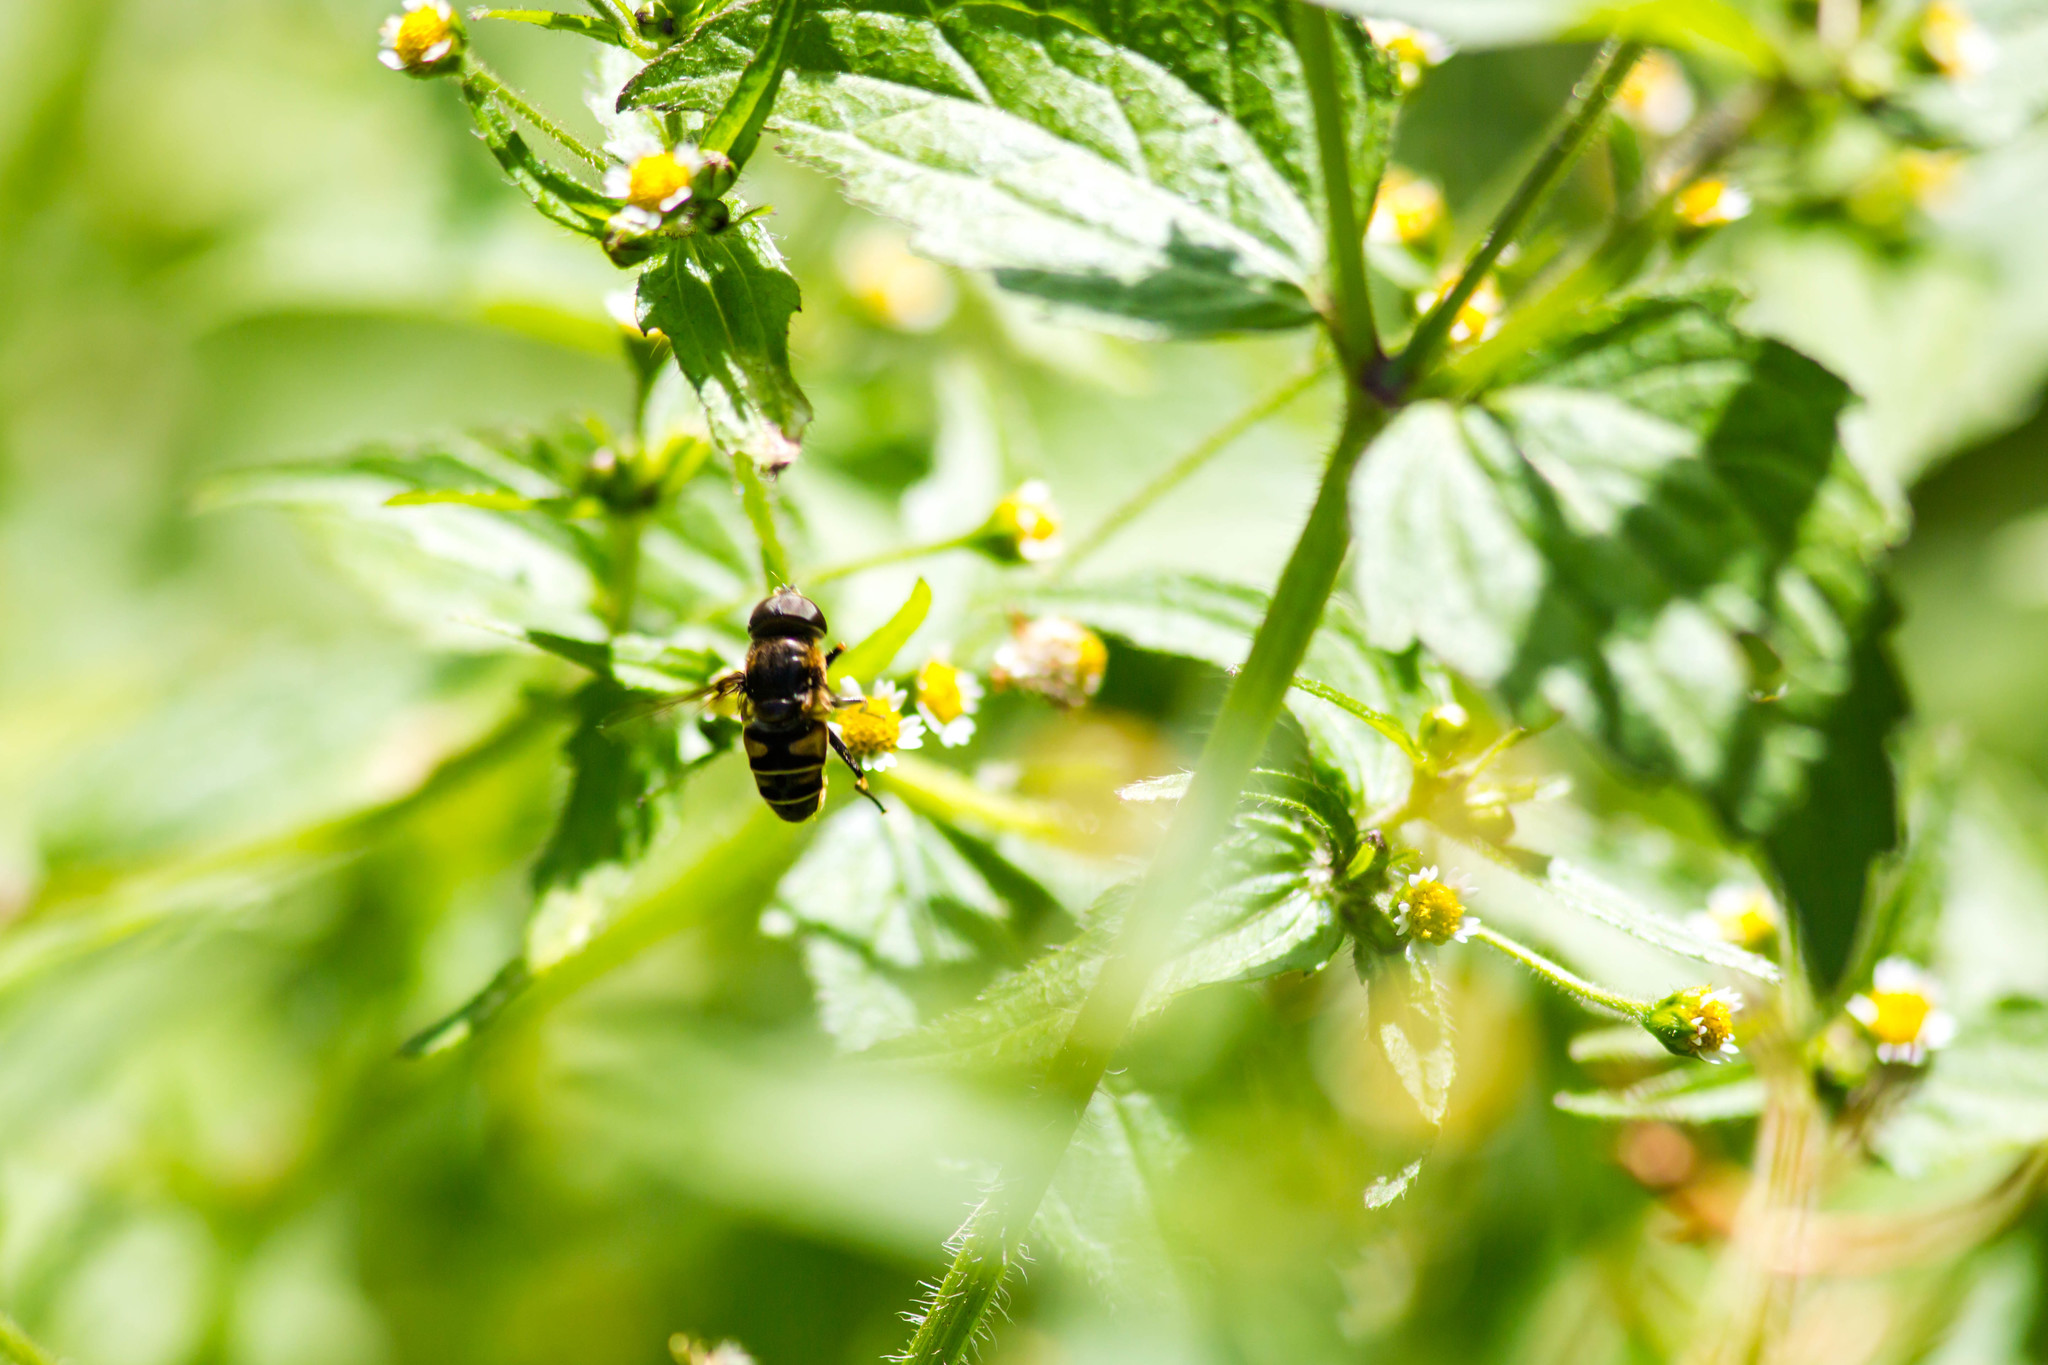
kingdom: Animalia
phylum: Arthropoda
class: Insecta
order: Diptera
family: Syrphidae
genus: Eristalis
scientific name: Eristalis dimidiata
